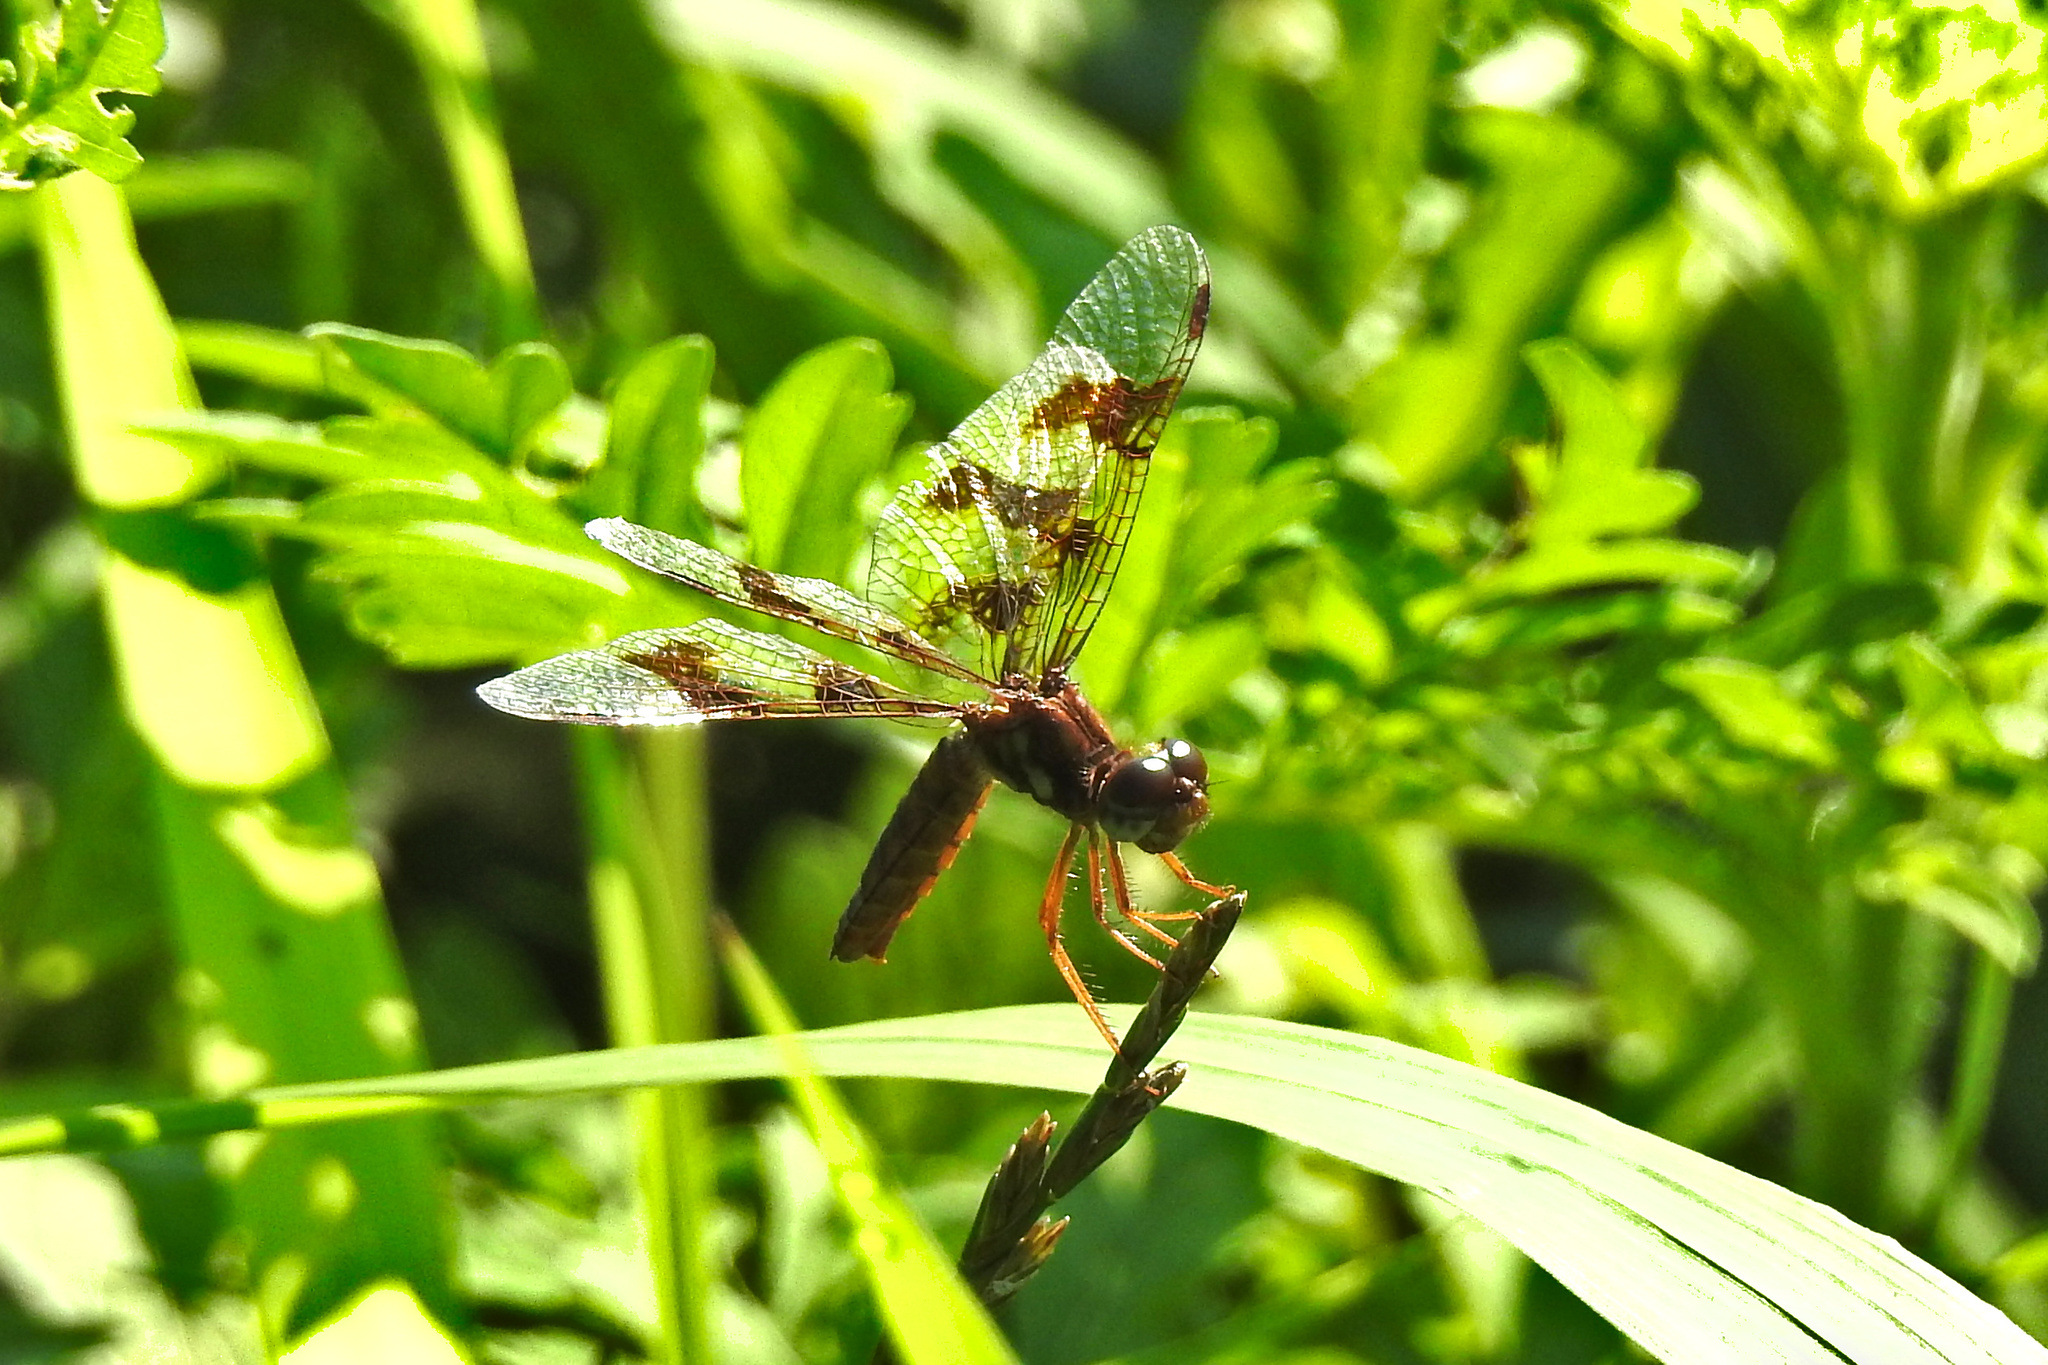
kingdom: Animalia
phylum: Arthropoda
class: Insecta
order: Odonata
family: Libellulidae
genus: Perithemis
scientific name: Perithemis tenera
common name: Eastern amberwing
